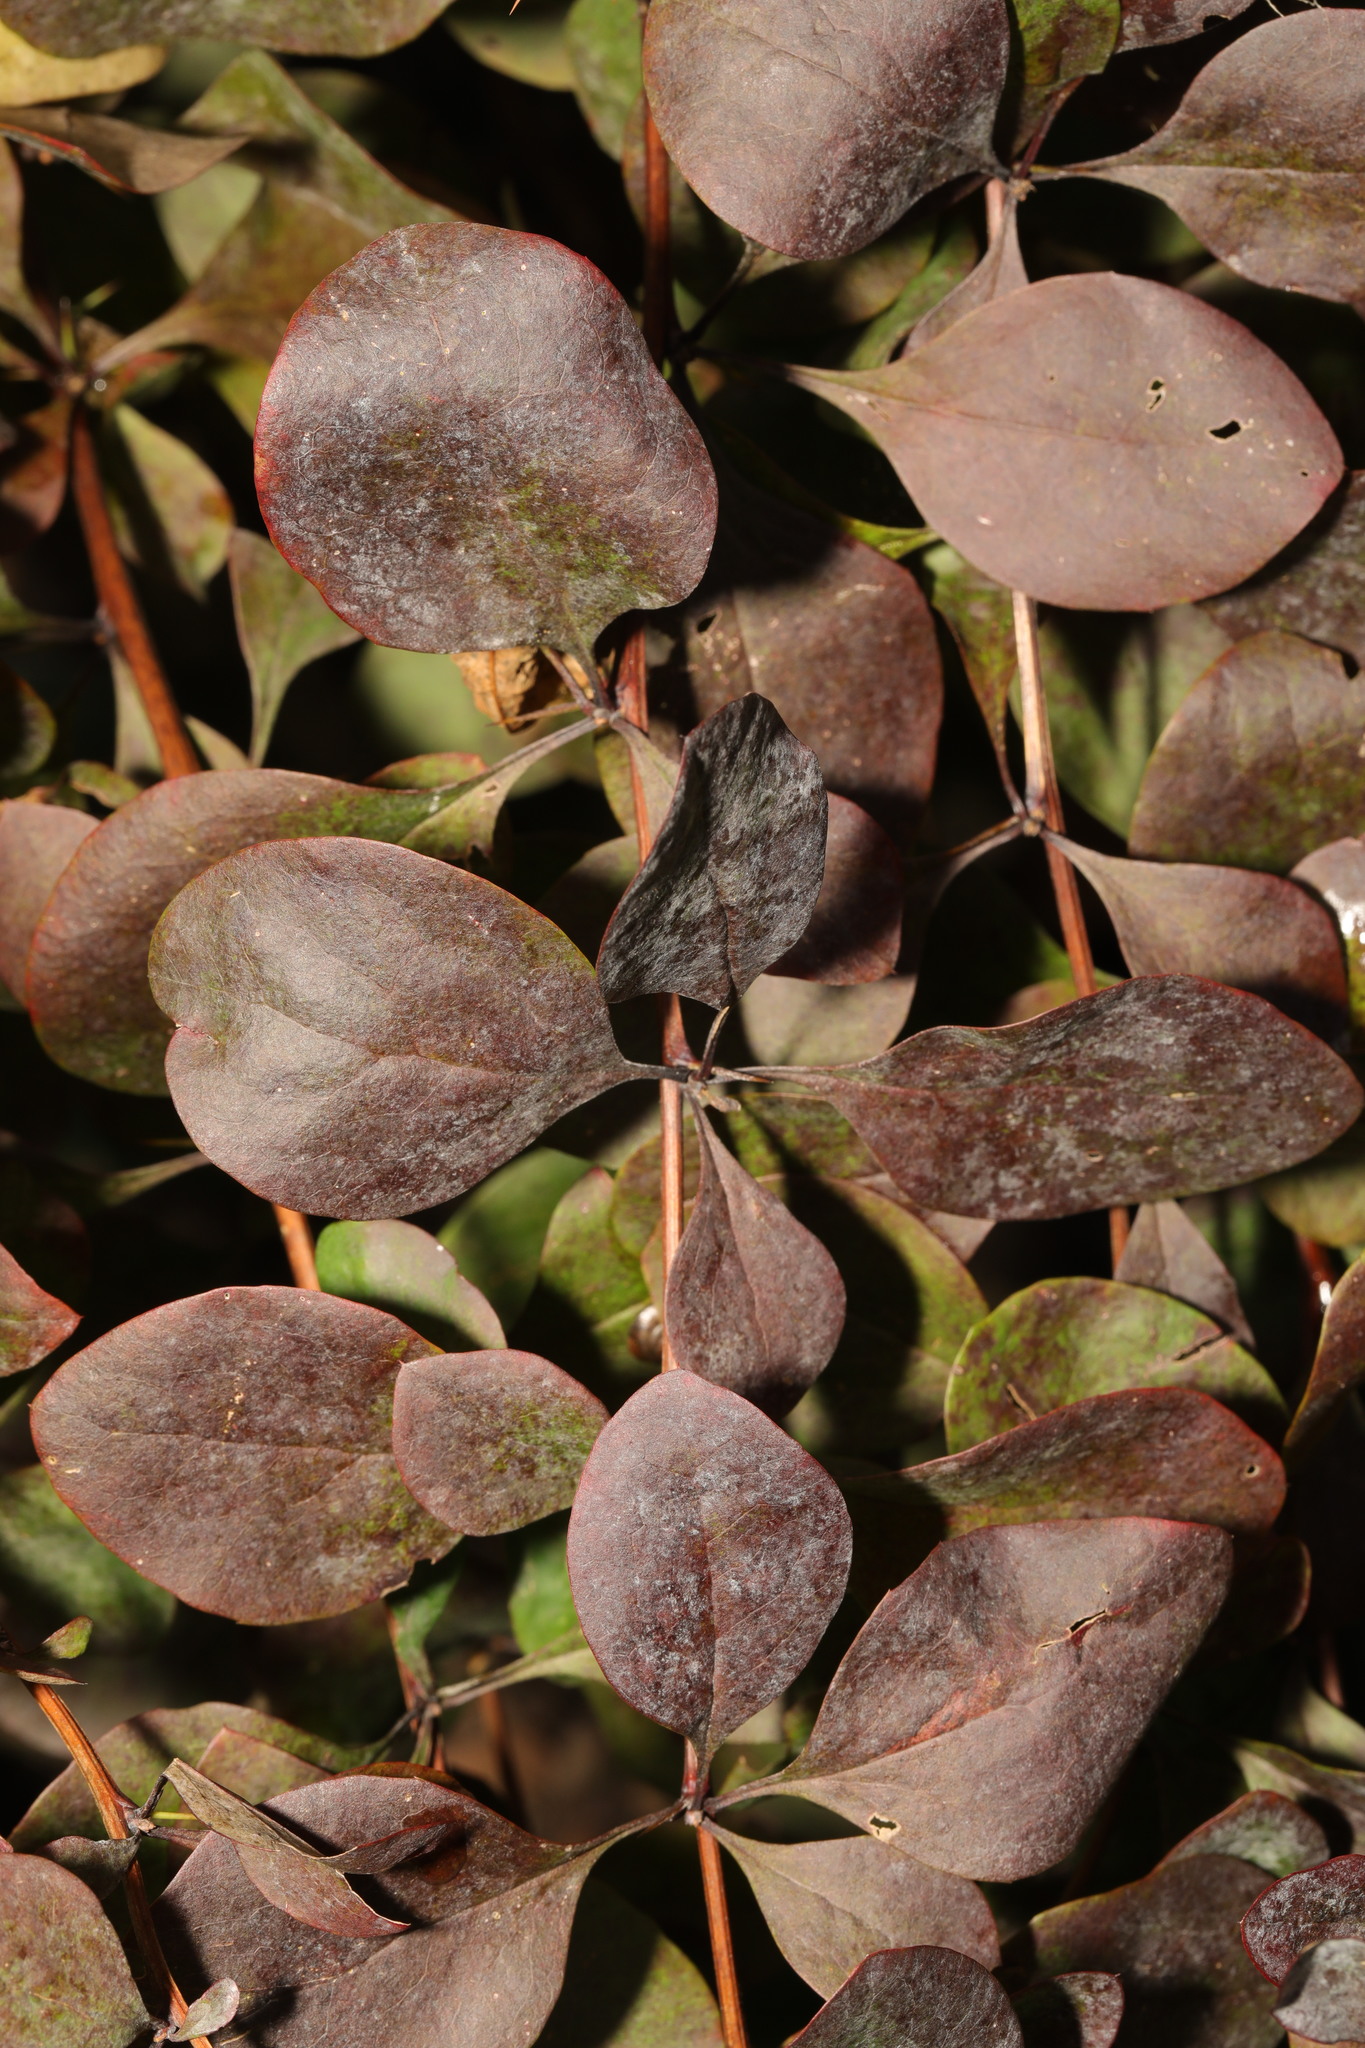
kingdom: Plantae
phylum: Tracheophyta
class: Magnoliopsida
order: Ranunculales
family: Berberidaceae
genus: Berberis
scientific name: Berberis thunbergii
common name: Japanese barberry
